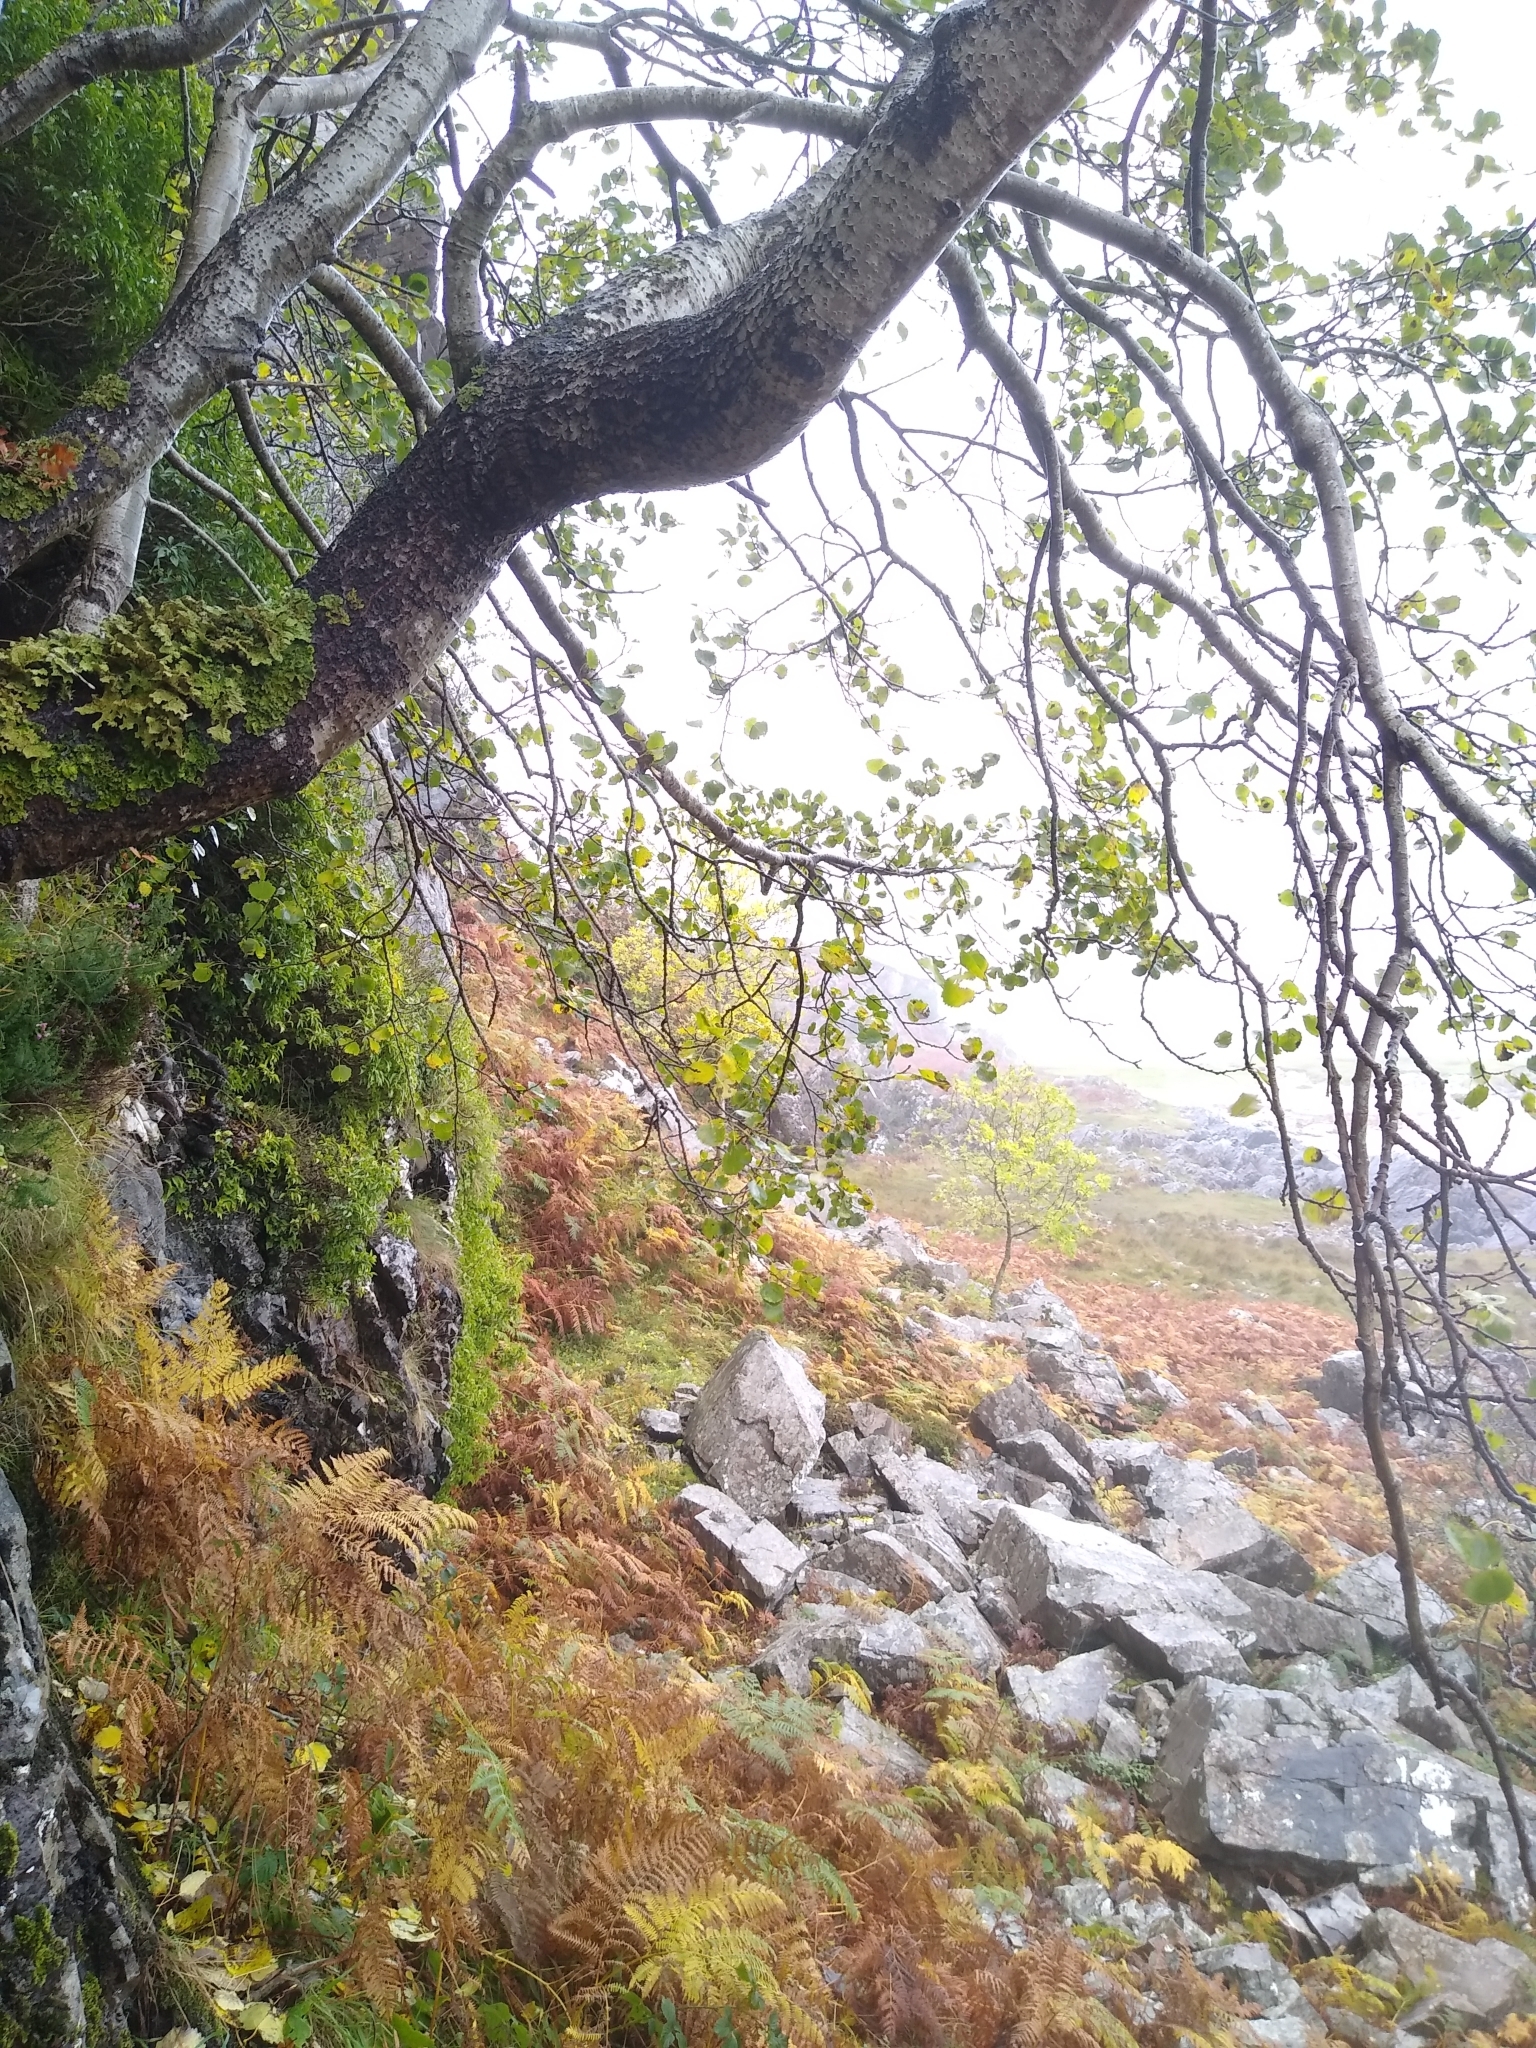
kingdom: Plantae
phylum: Tracheophyta
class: Magnoliopsida
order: Malpighiales
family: Salicaceae
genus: Populus
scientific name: Populus tremula
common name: European aspen
